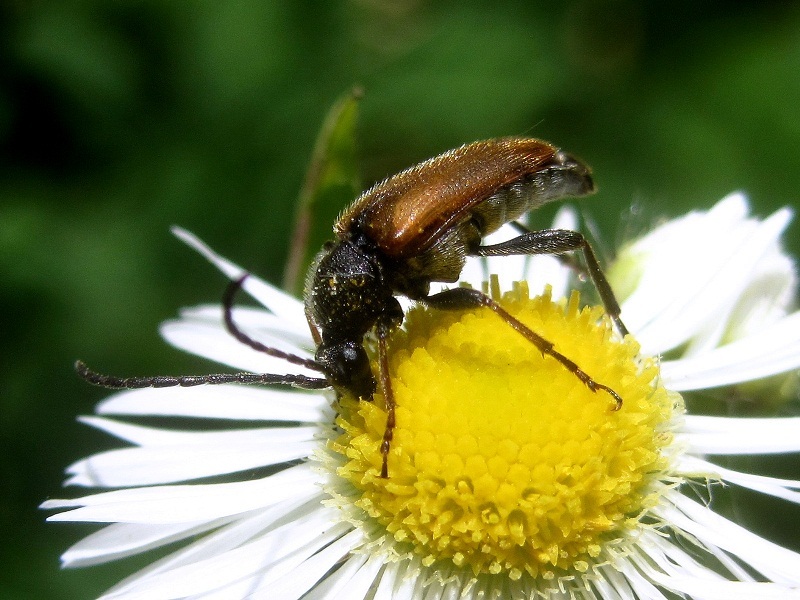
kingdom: Animalia
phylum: Arthropoda
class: Insecta
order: Coleoptera
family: Cerambycidae
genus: Pseudovadonia
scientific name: Pseudovadonia livida
